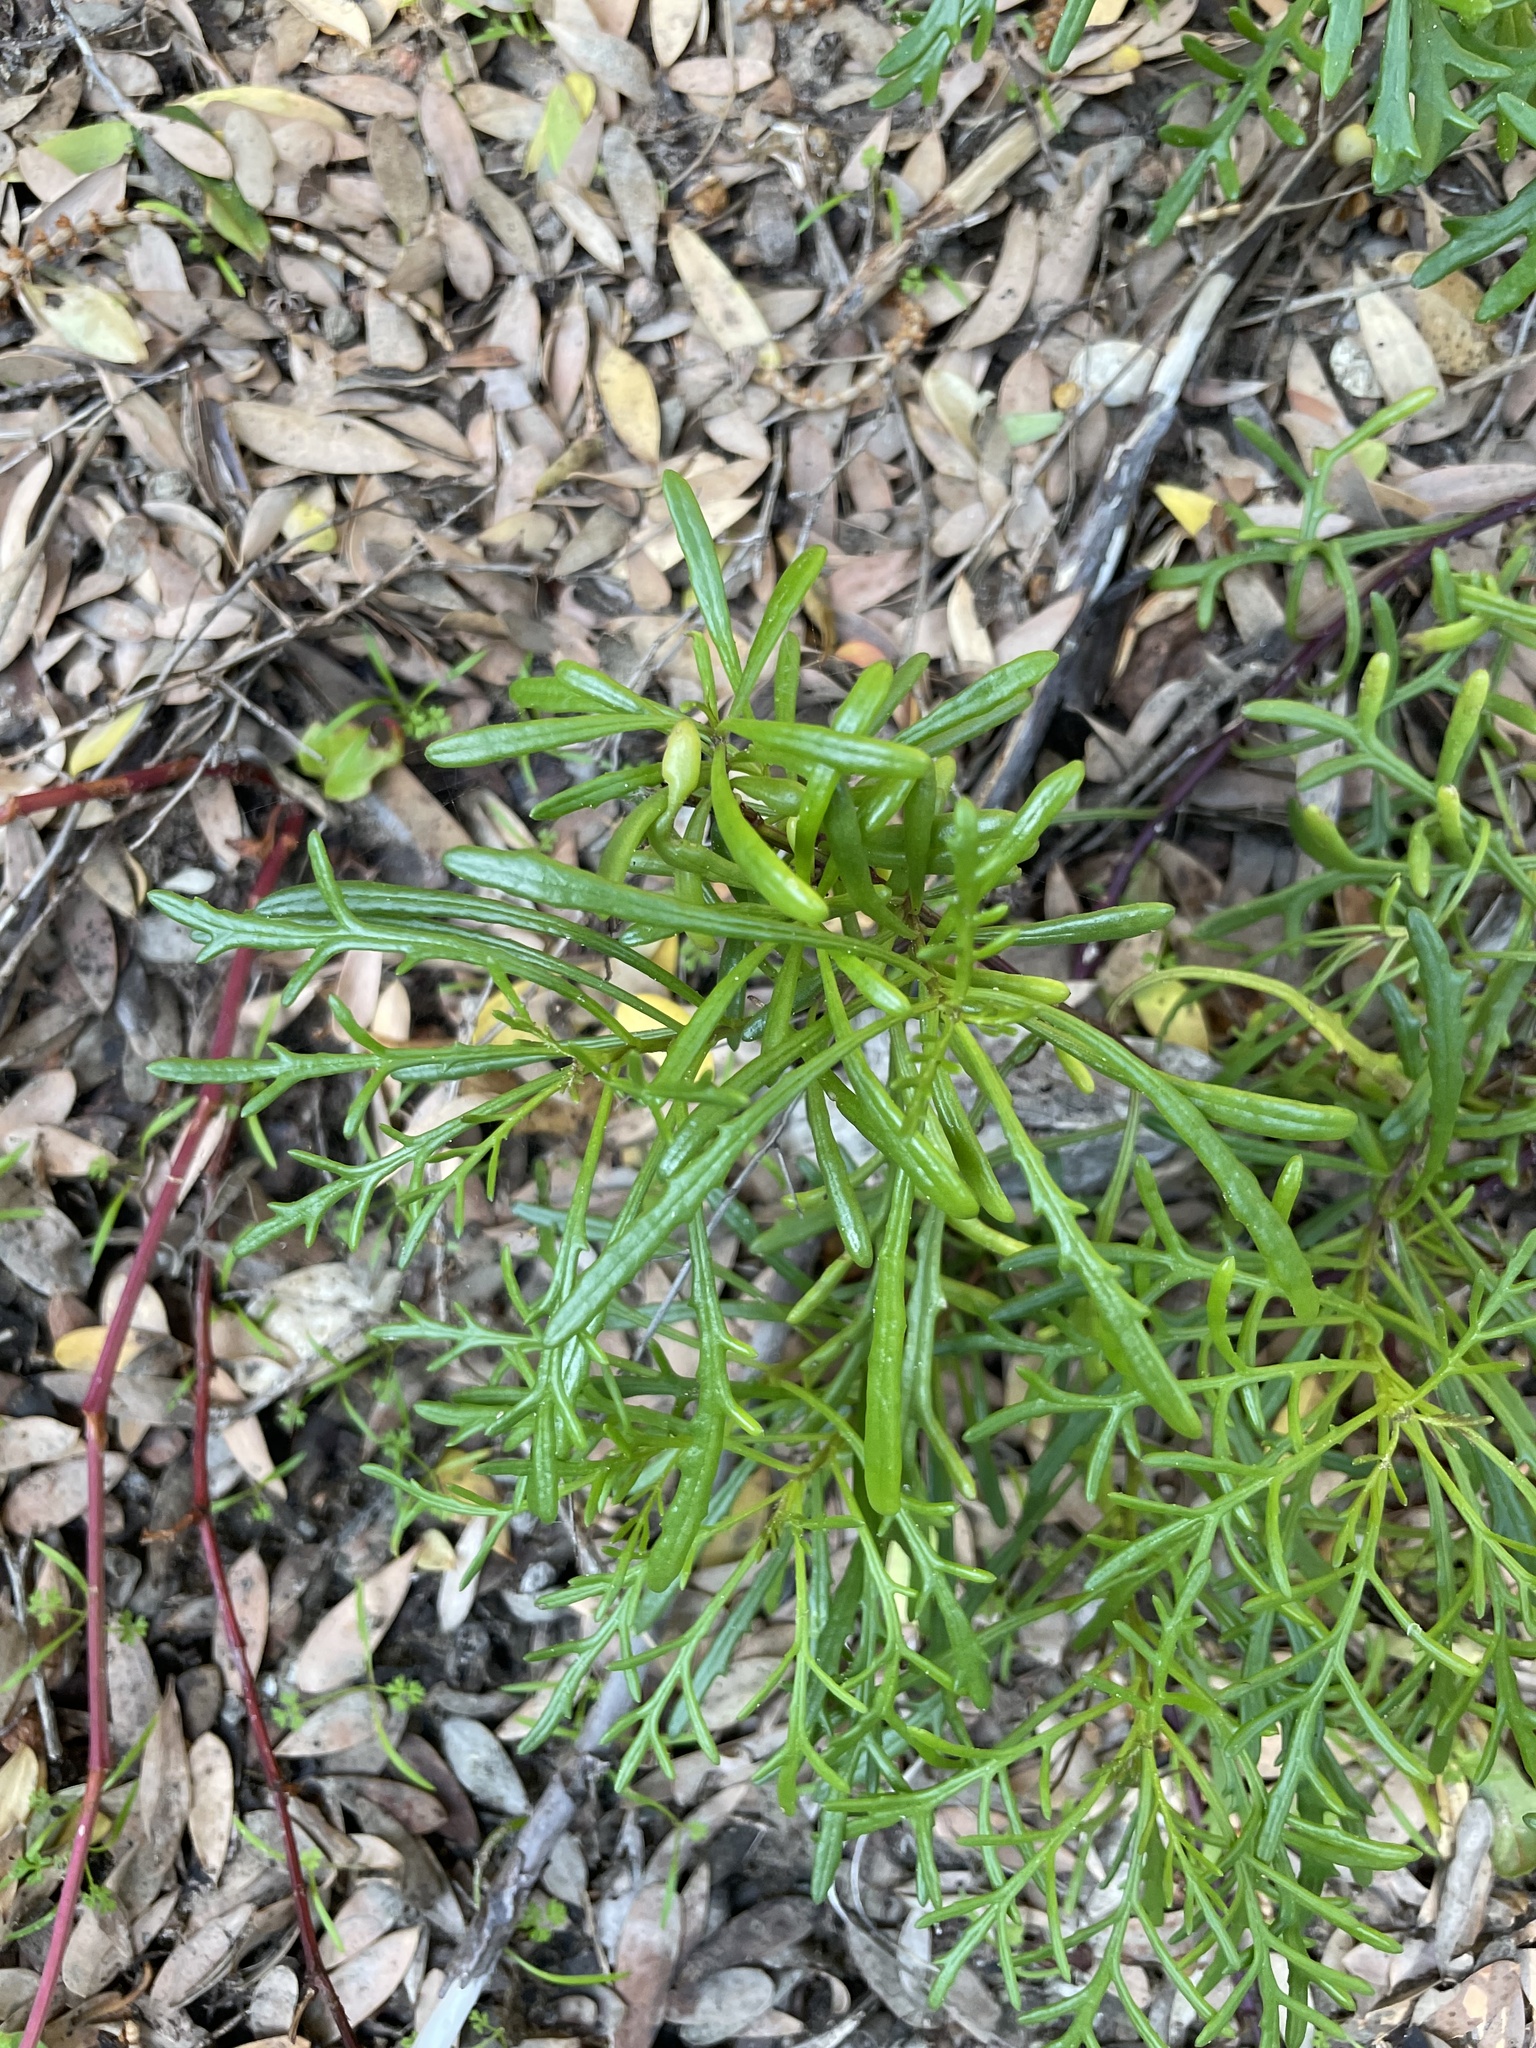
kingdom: Plantae
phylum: Tracheophyta
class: Magnoliopsida
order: Asterales
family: Asteraceae
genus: Senecio
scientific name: Senecio pinnatifolius
